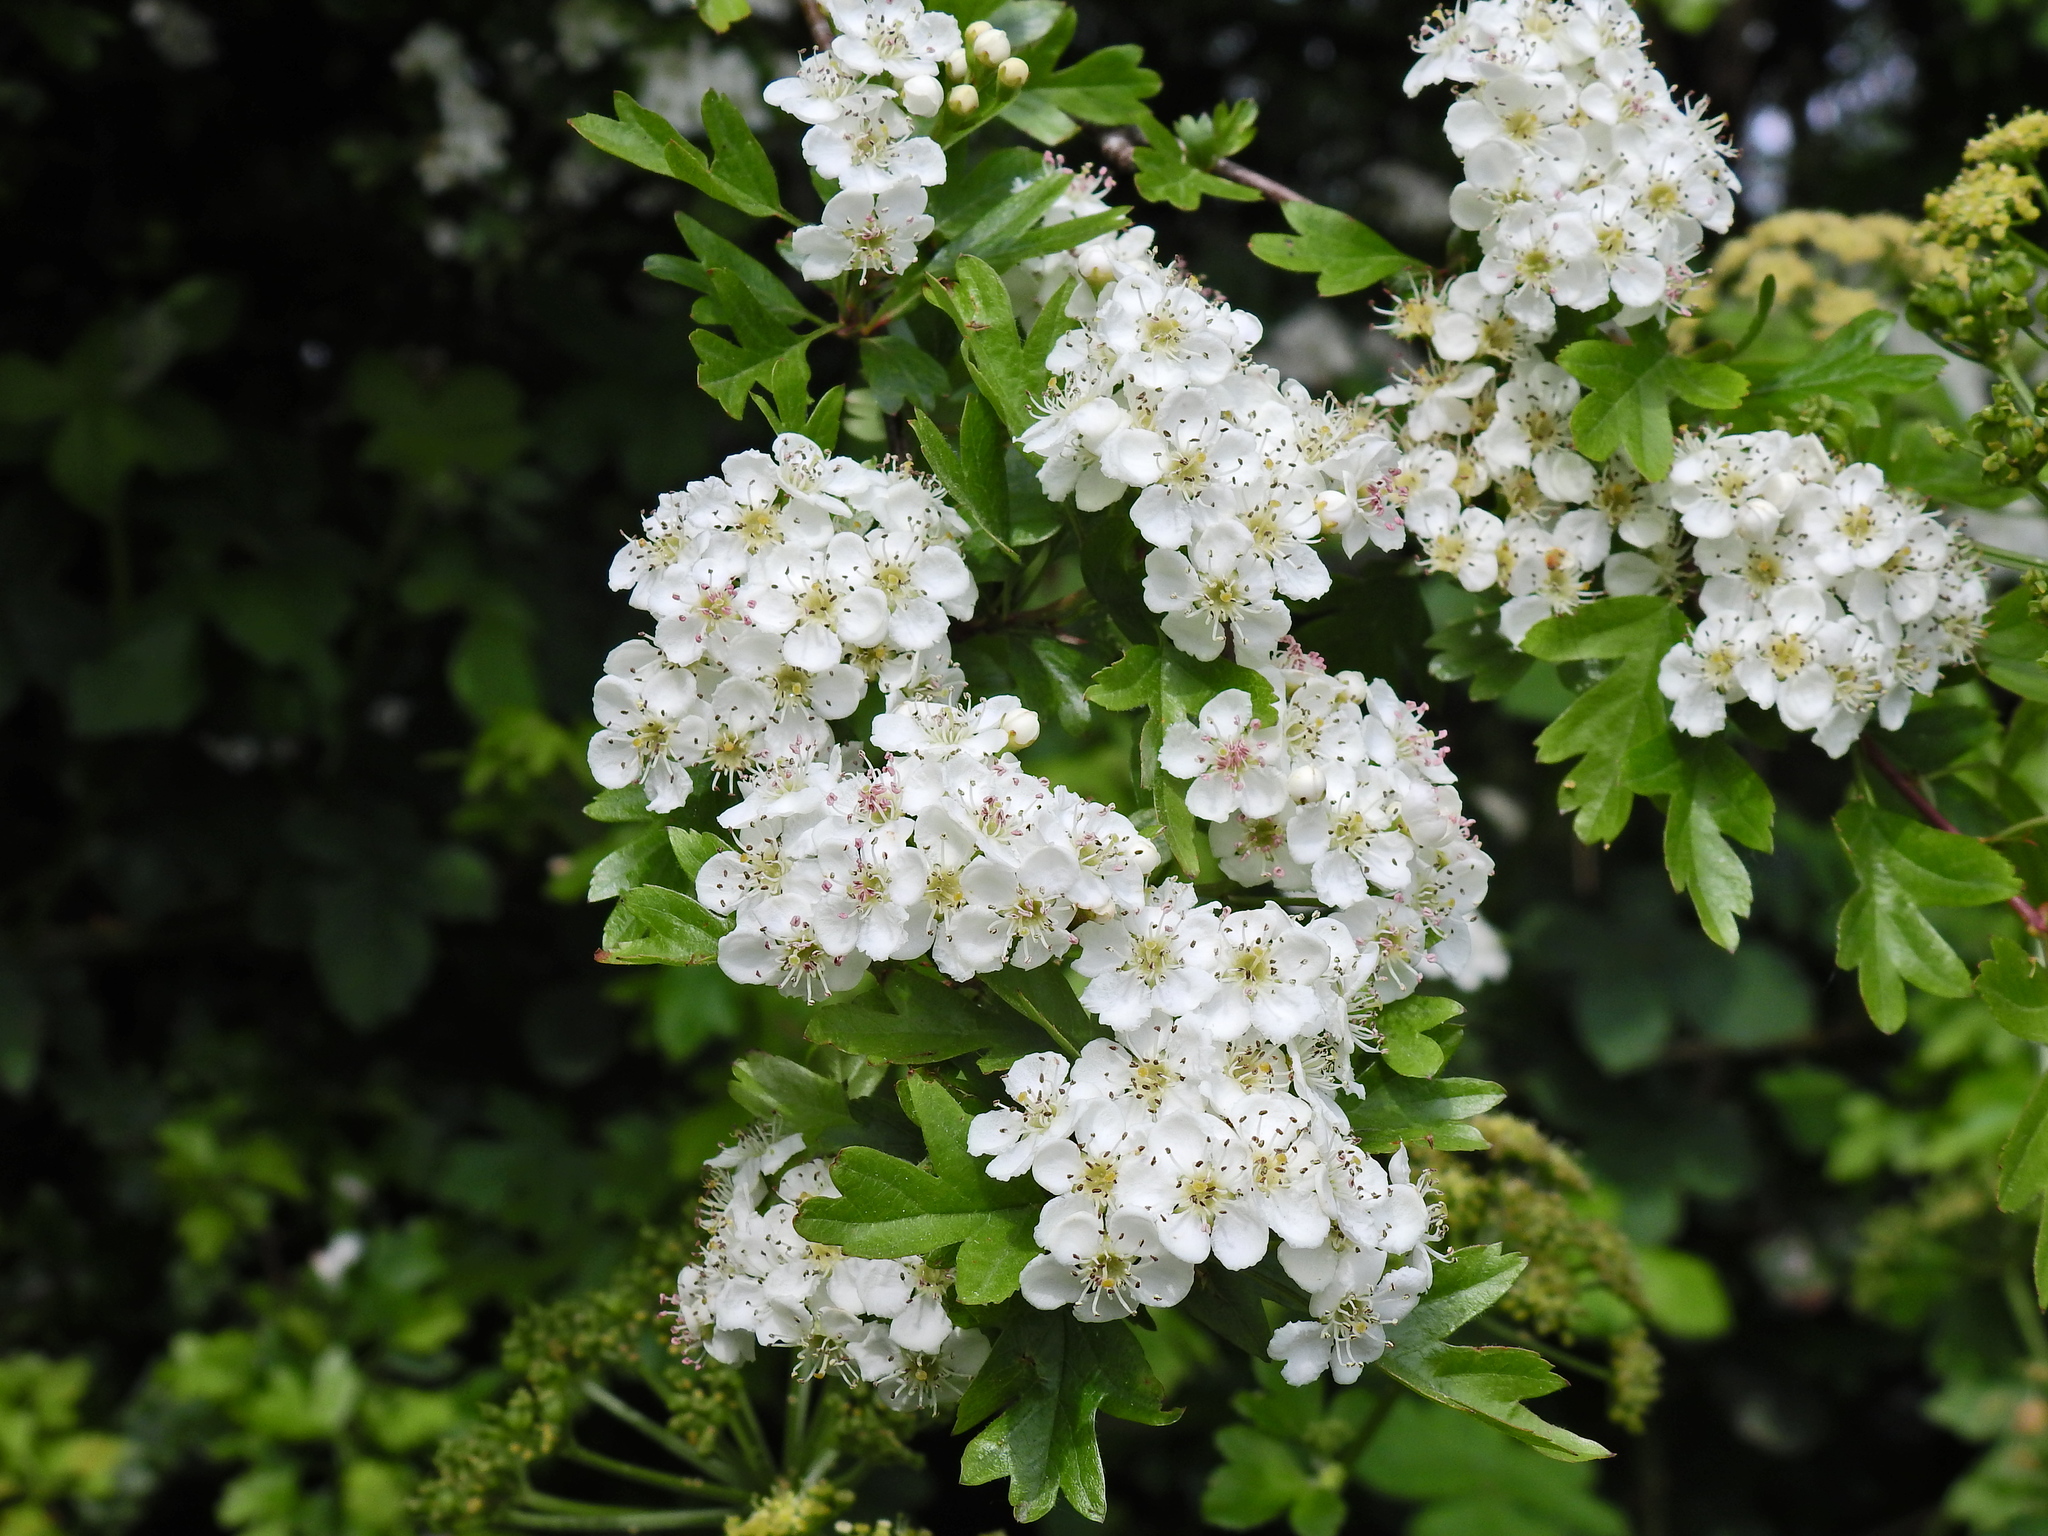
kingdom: Plantae
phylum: Tracheophyta
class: Magnoliopsida
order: Rosales
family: Rosaceae
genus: Crataegus
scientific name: Crataegus monogyna
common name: Hawthorn
